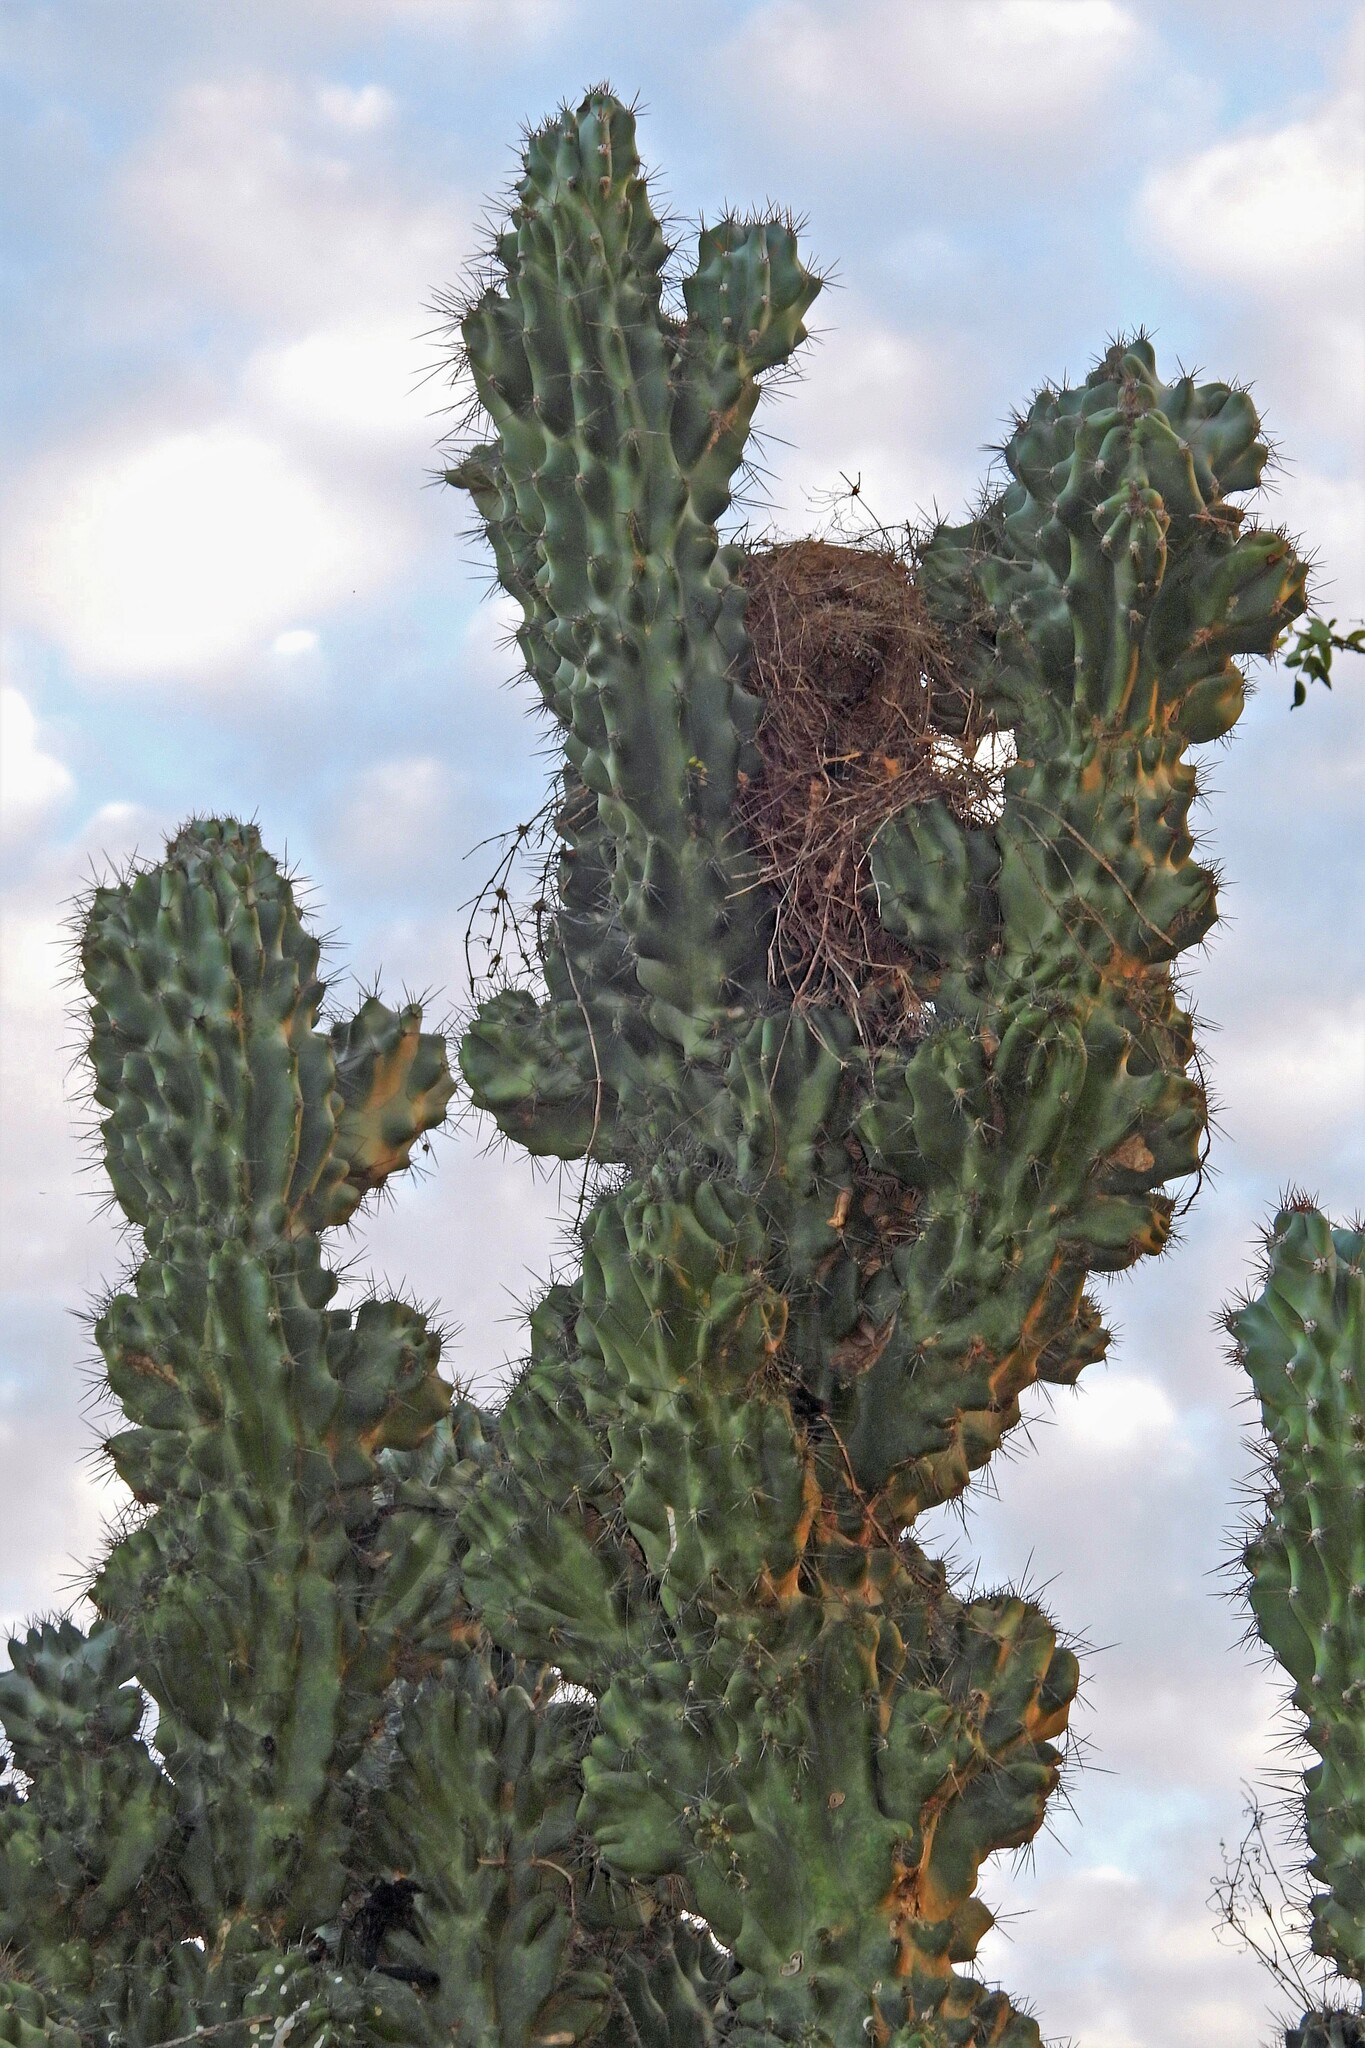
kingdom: Plantae
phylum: Tracheophyta
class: Magnoliopsida
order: Caryophyllales
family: Cactaceae
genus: Cereus
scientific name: Cereus hildmannianus
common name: Hedge cactus
